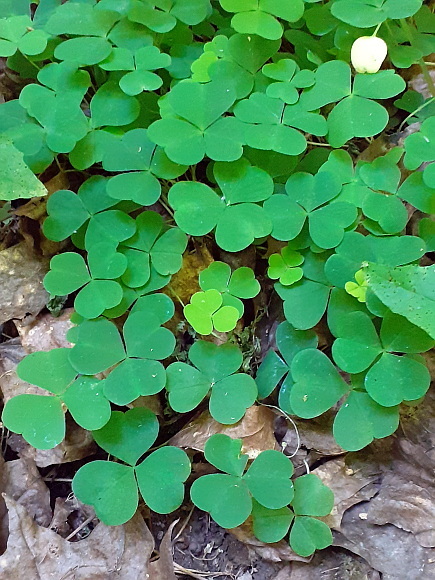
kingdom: Plantae
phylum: Tracheophyta
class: Magnoliopsida
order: Oxalidales
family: Oxalidaceae
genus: Oxalis
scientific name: Oxalis acetosella
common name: Wood-sorrel
